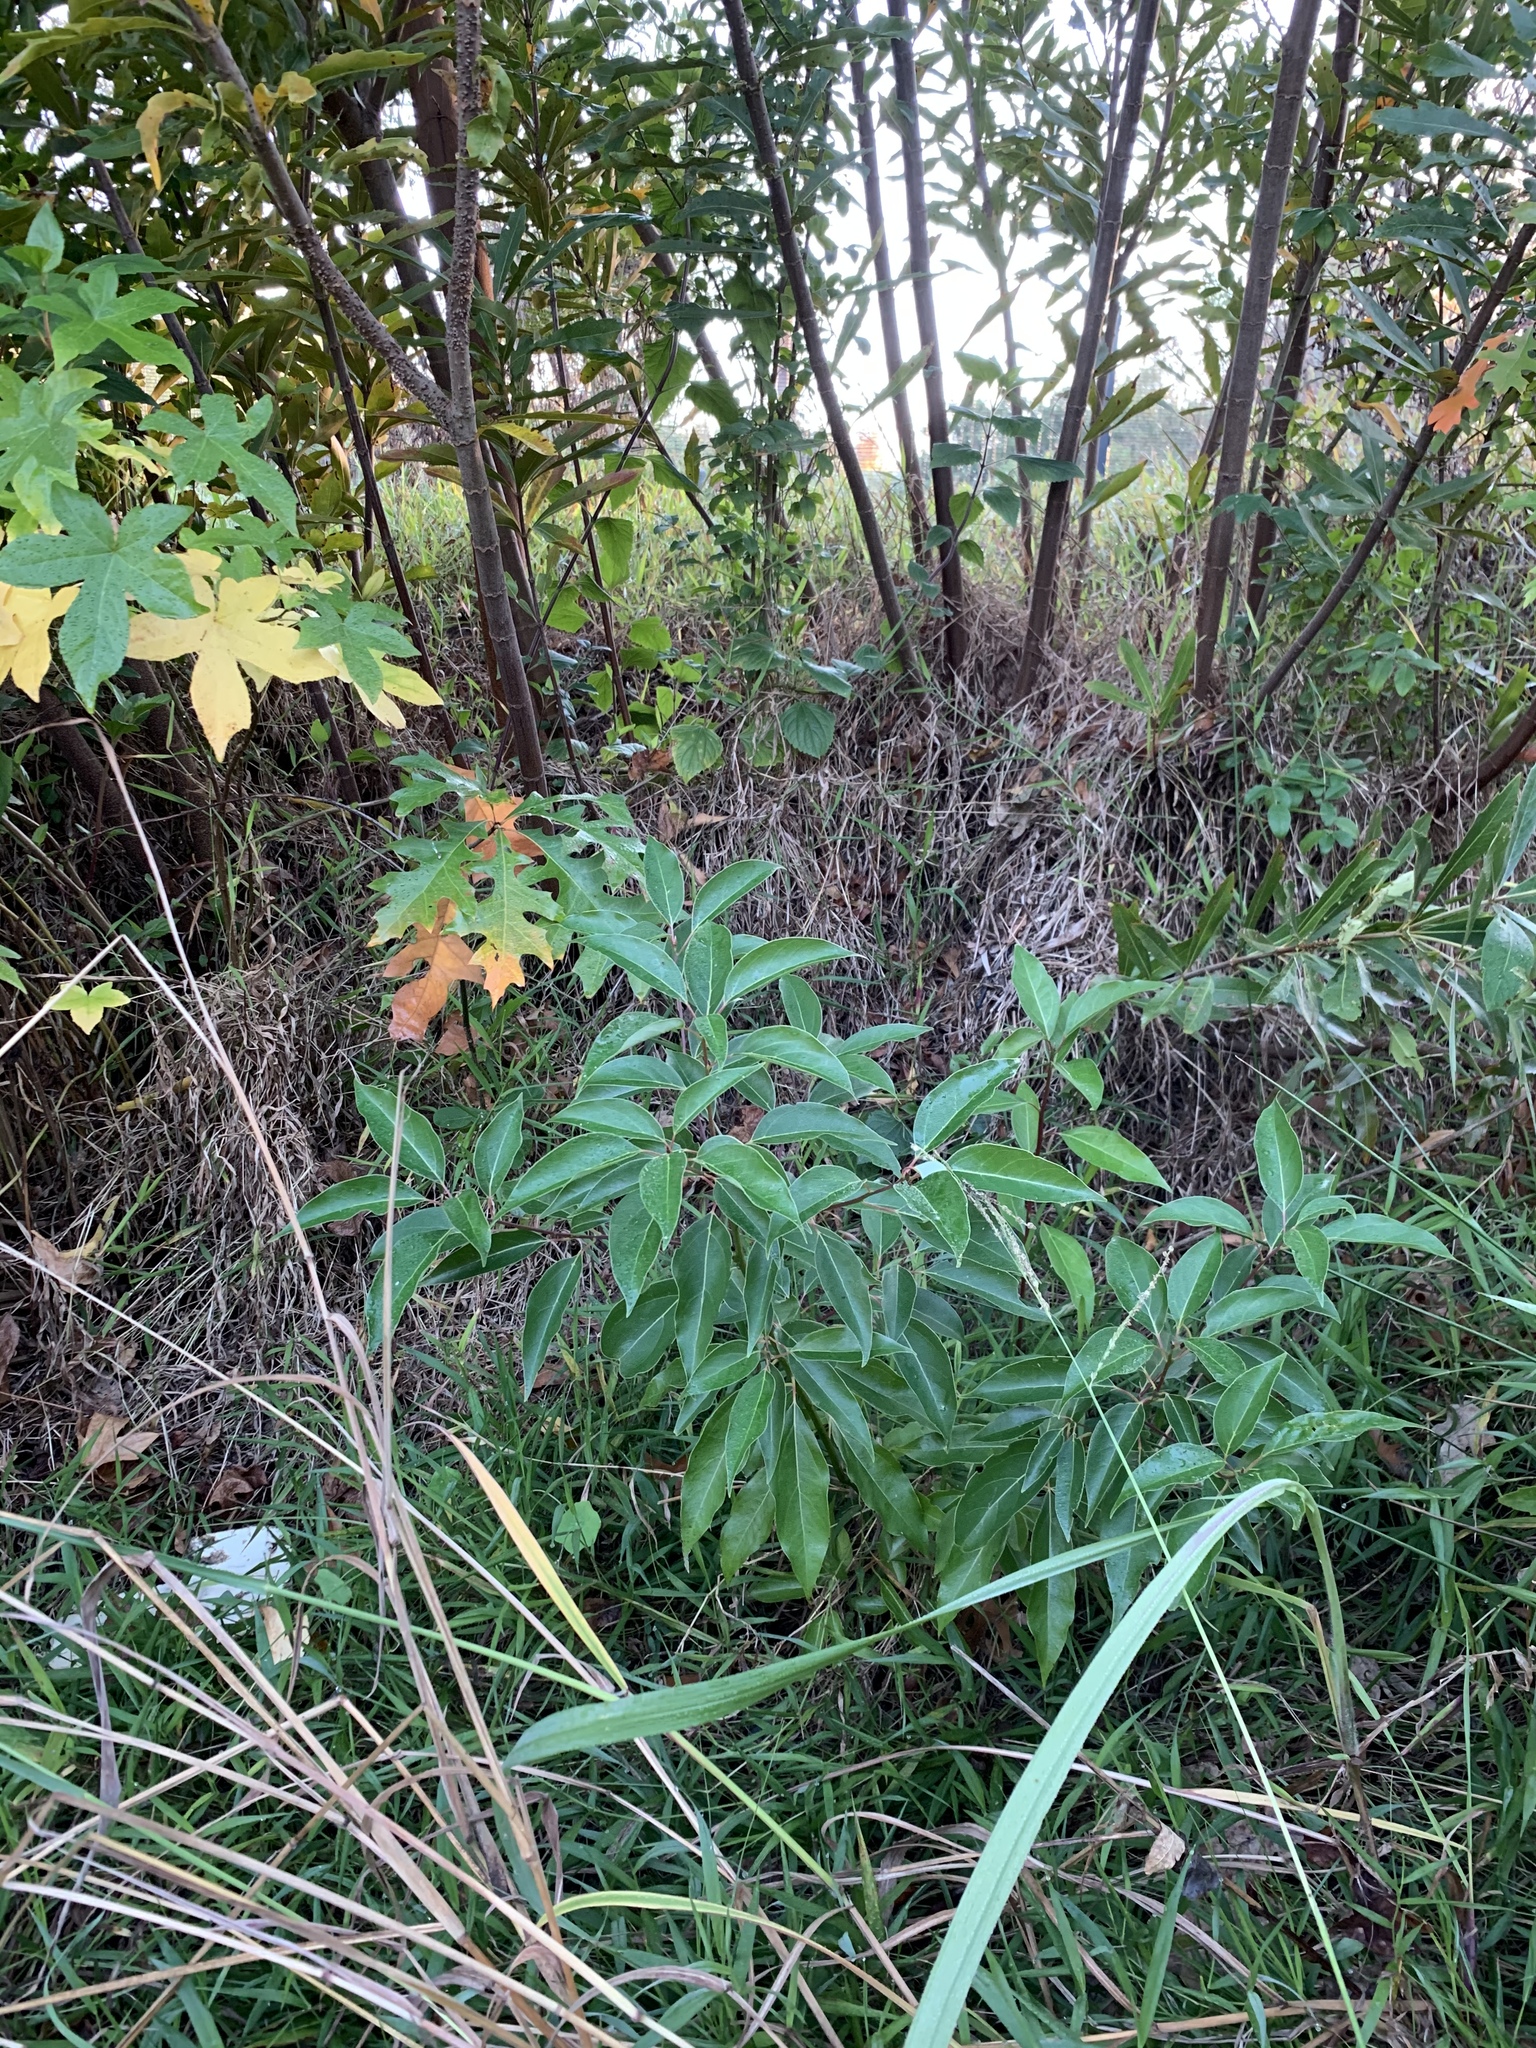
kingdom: Plantae
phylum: Tracheophyta
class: Magnoliopsida
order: Laurales
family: Lauraceae
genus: Cinnamomum
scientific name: Cinnamomum camphora
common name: Camphortree
